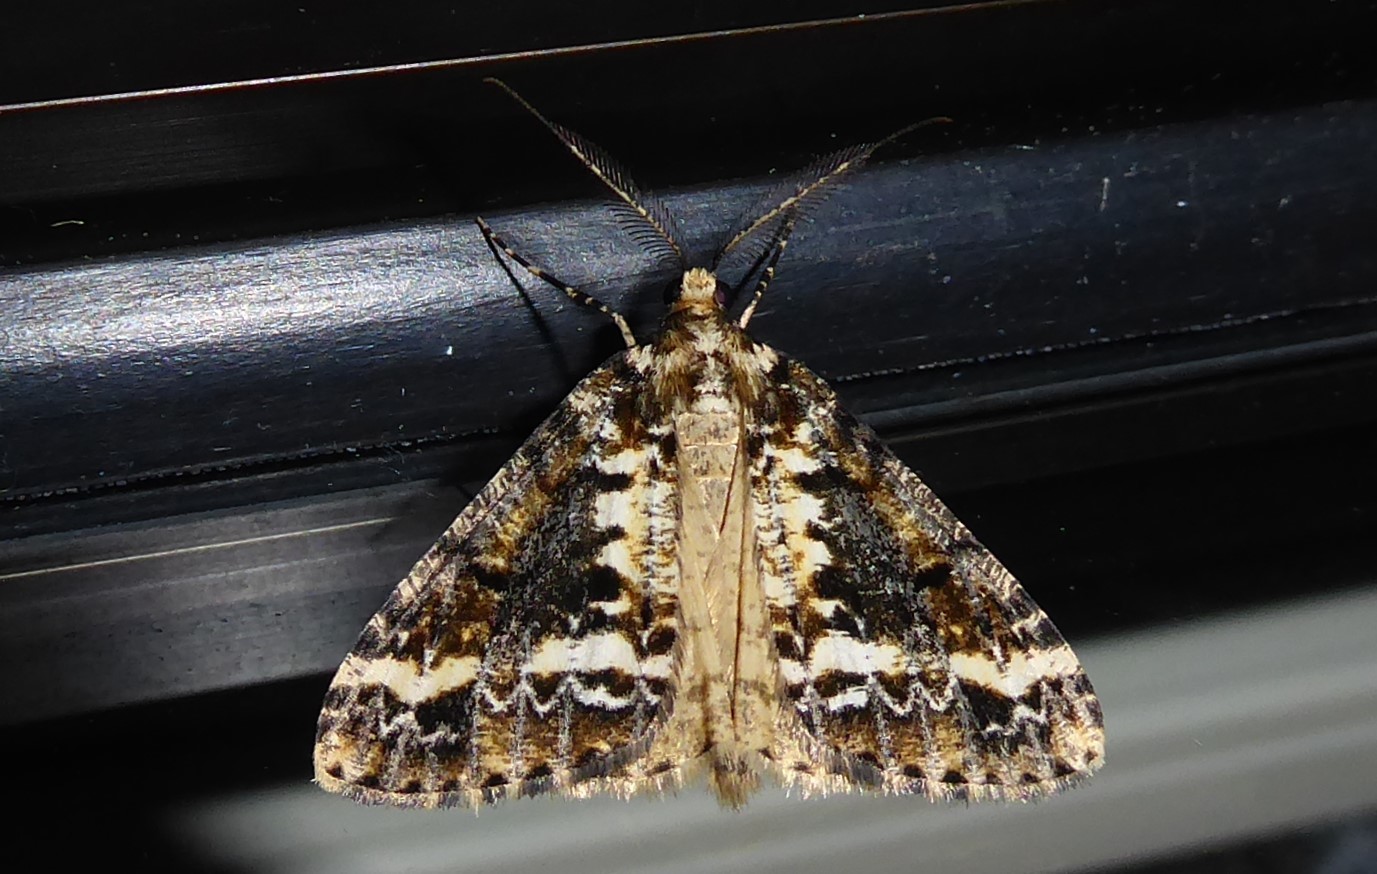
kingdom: Animalia
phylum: Arthropoda
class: Insecta
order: Lepidoptera
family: Geometridae
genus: Pseudocoremia
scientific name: Pseudocoremia leucelaea
